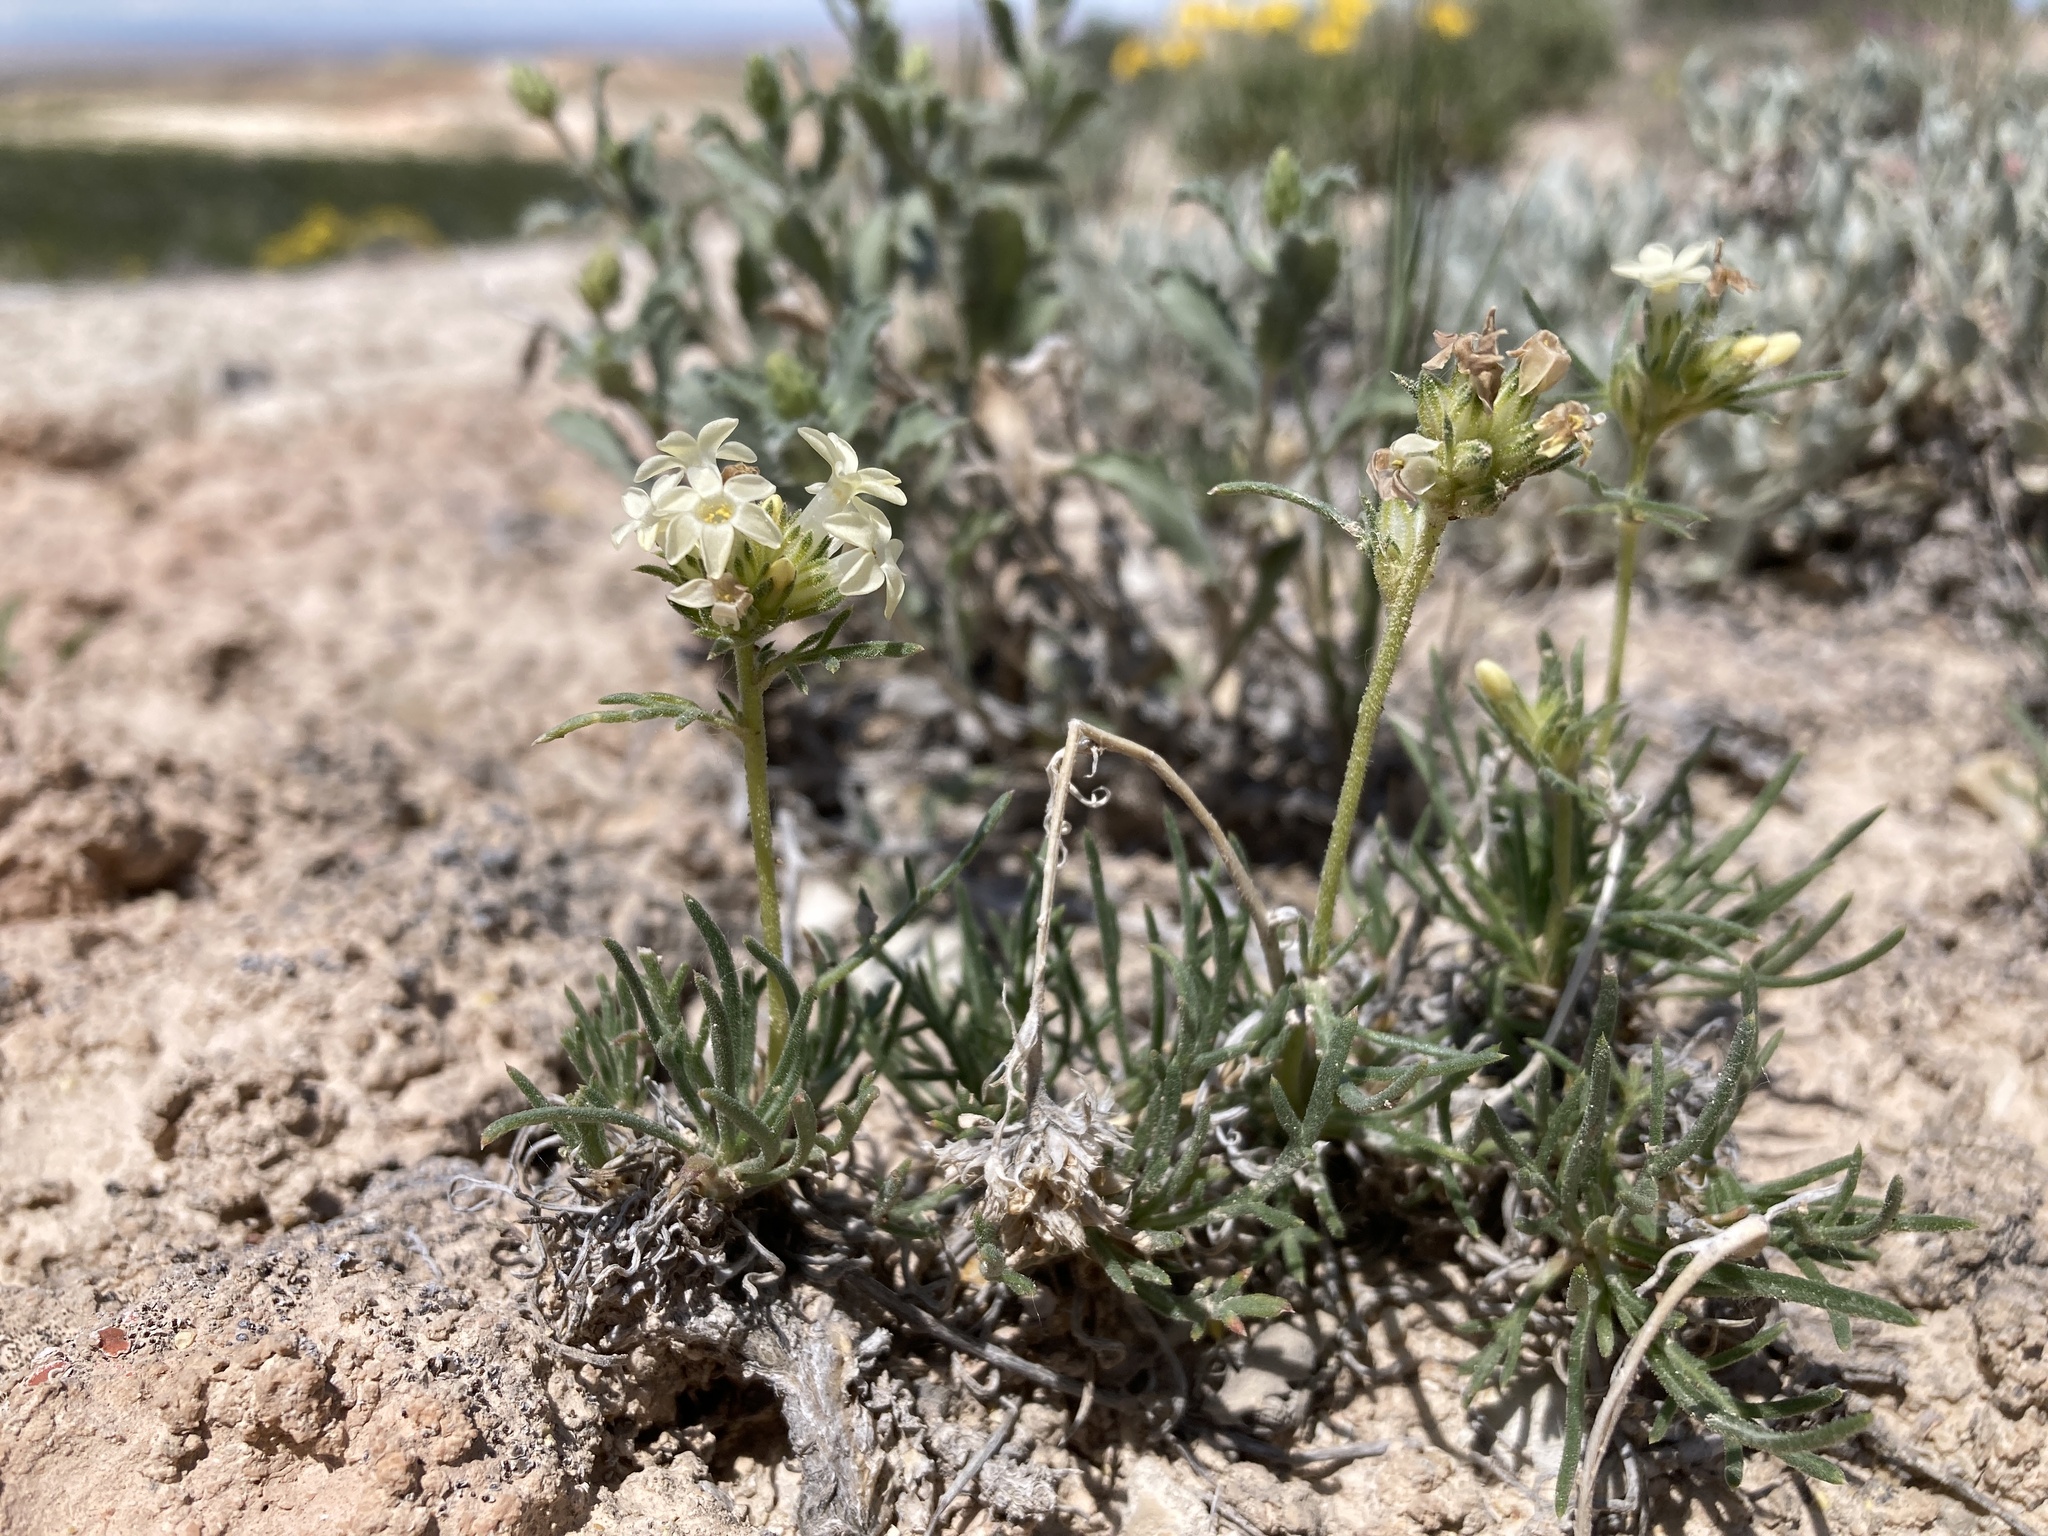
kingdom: Plantae
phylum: Tracheophyta
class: Magnoliopsida
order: Ericales
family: Polemoniaceae
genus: Ipomopsis
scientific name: Ipomopsis spicata
